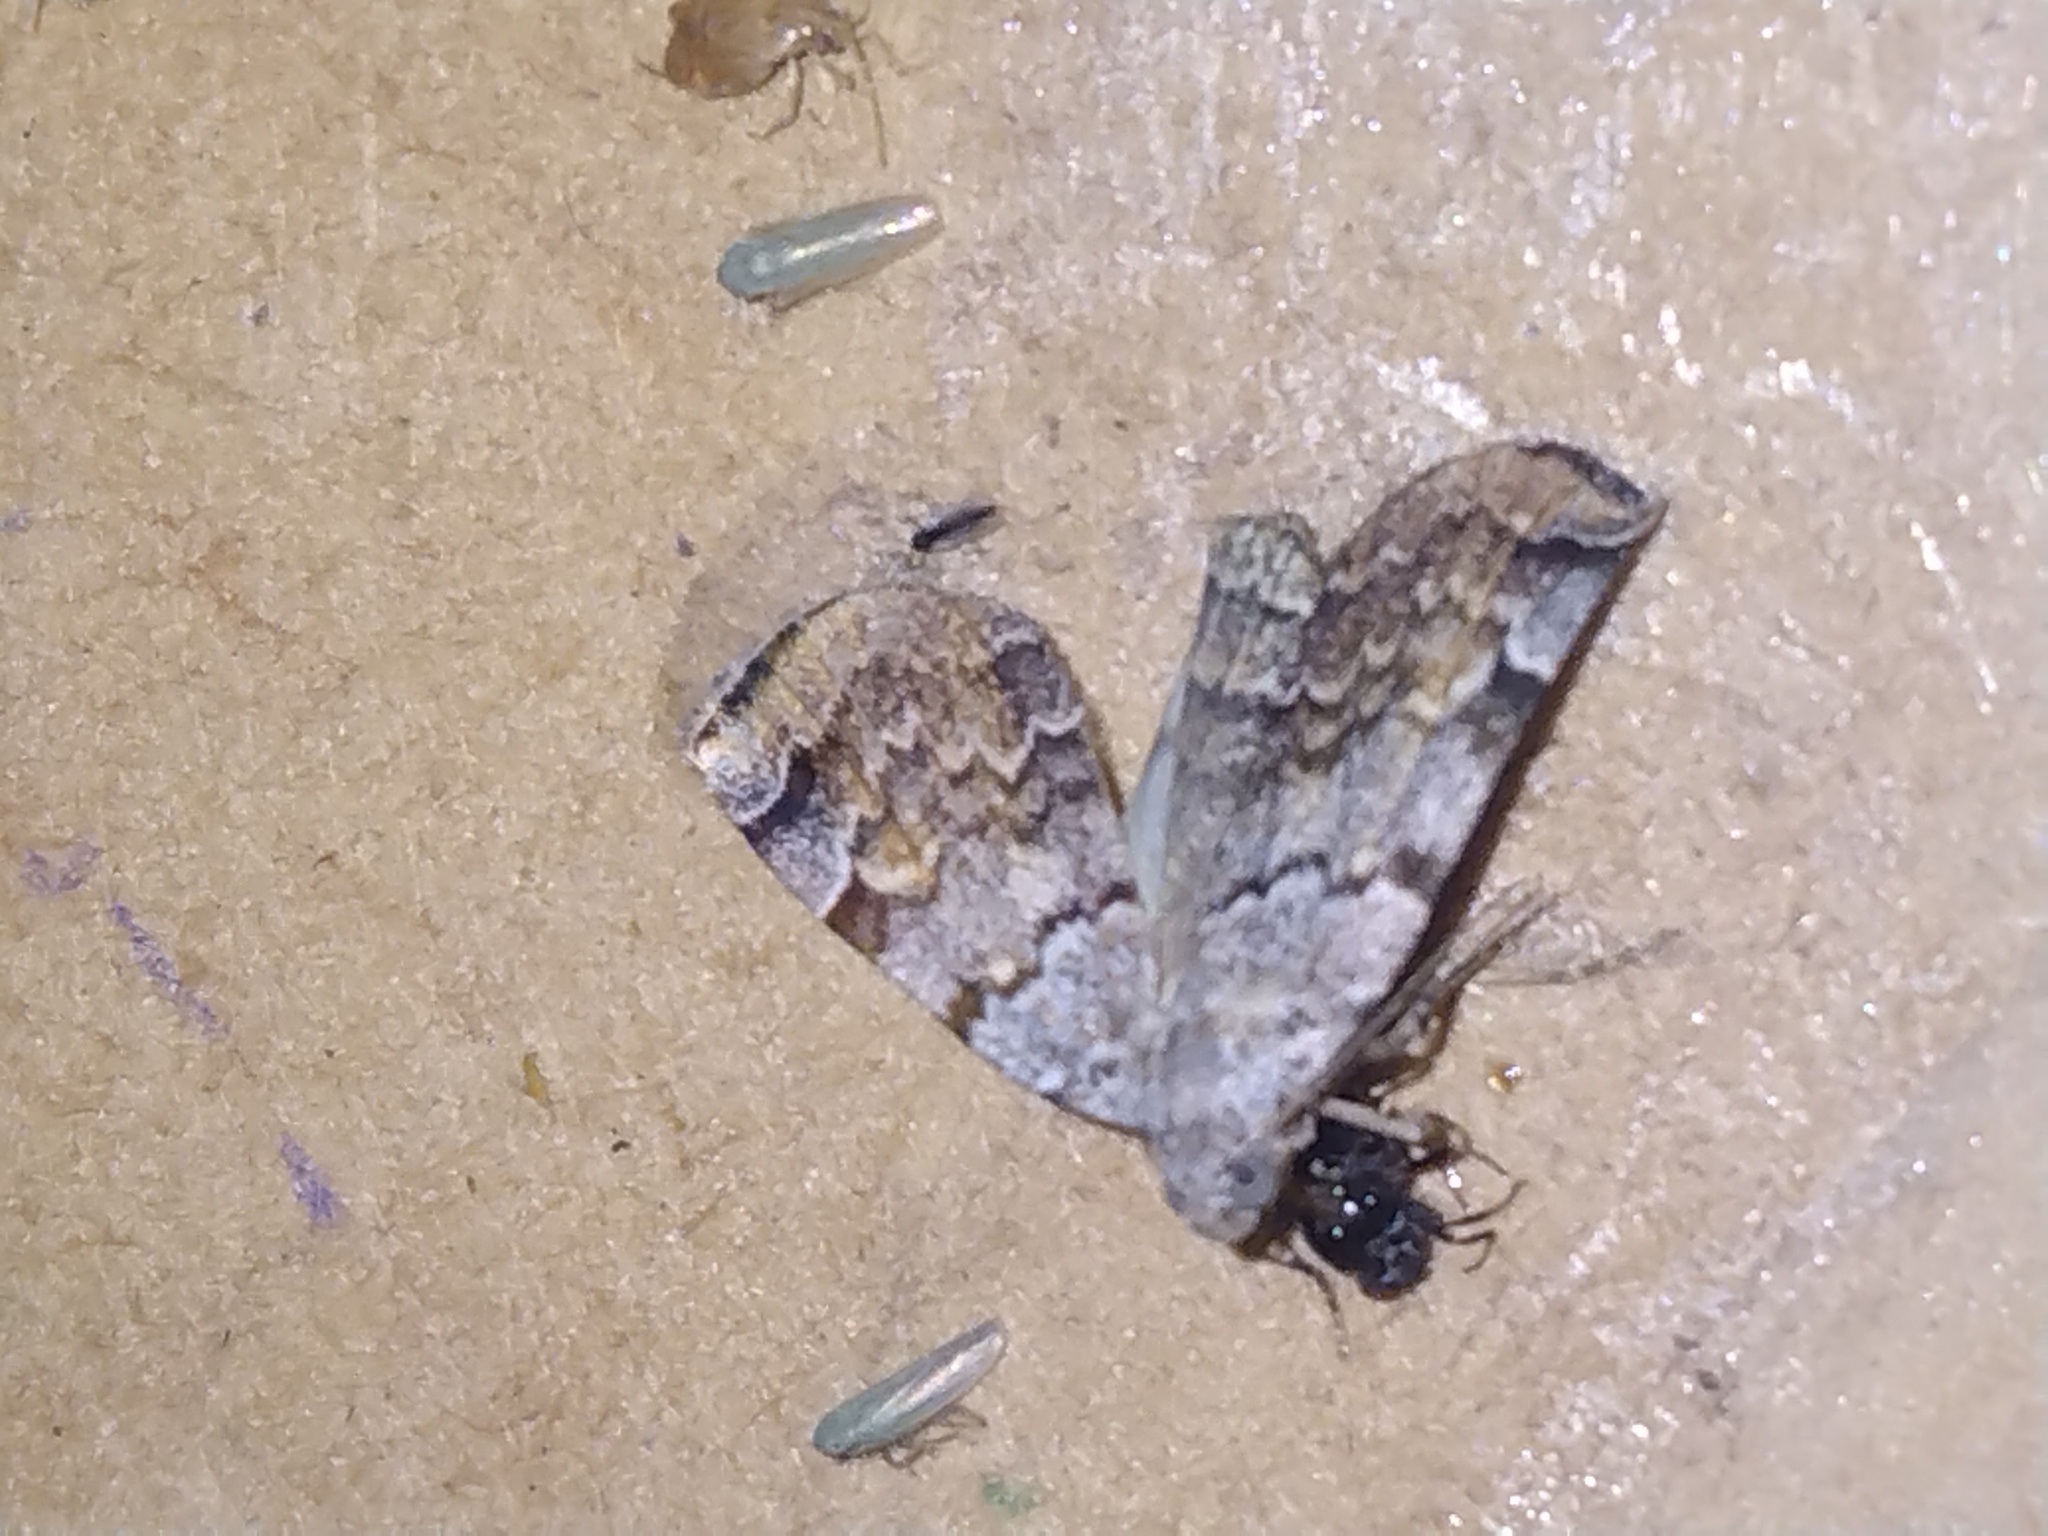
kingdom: Animalia
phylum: Arthropoda
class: Insecta
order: Lepidoptera
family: Erebidae
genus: Idia
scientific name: Idia americalis
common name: American idia moth
